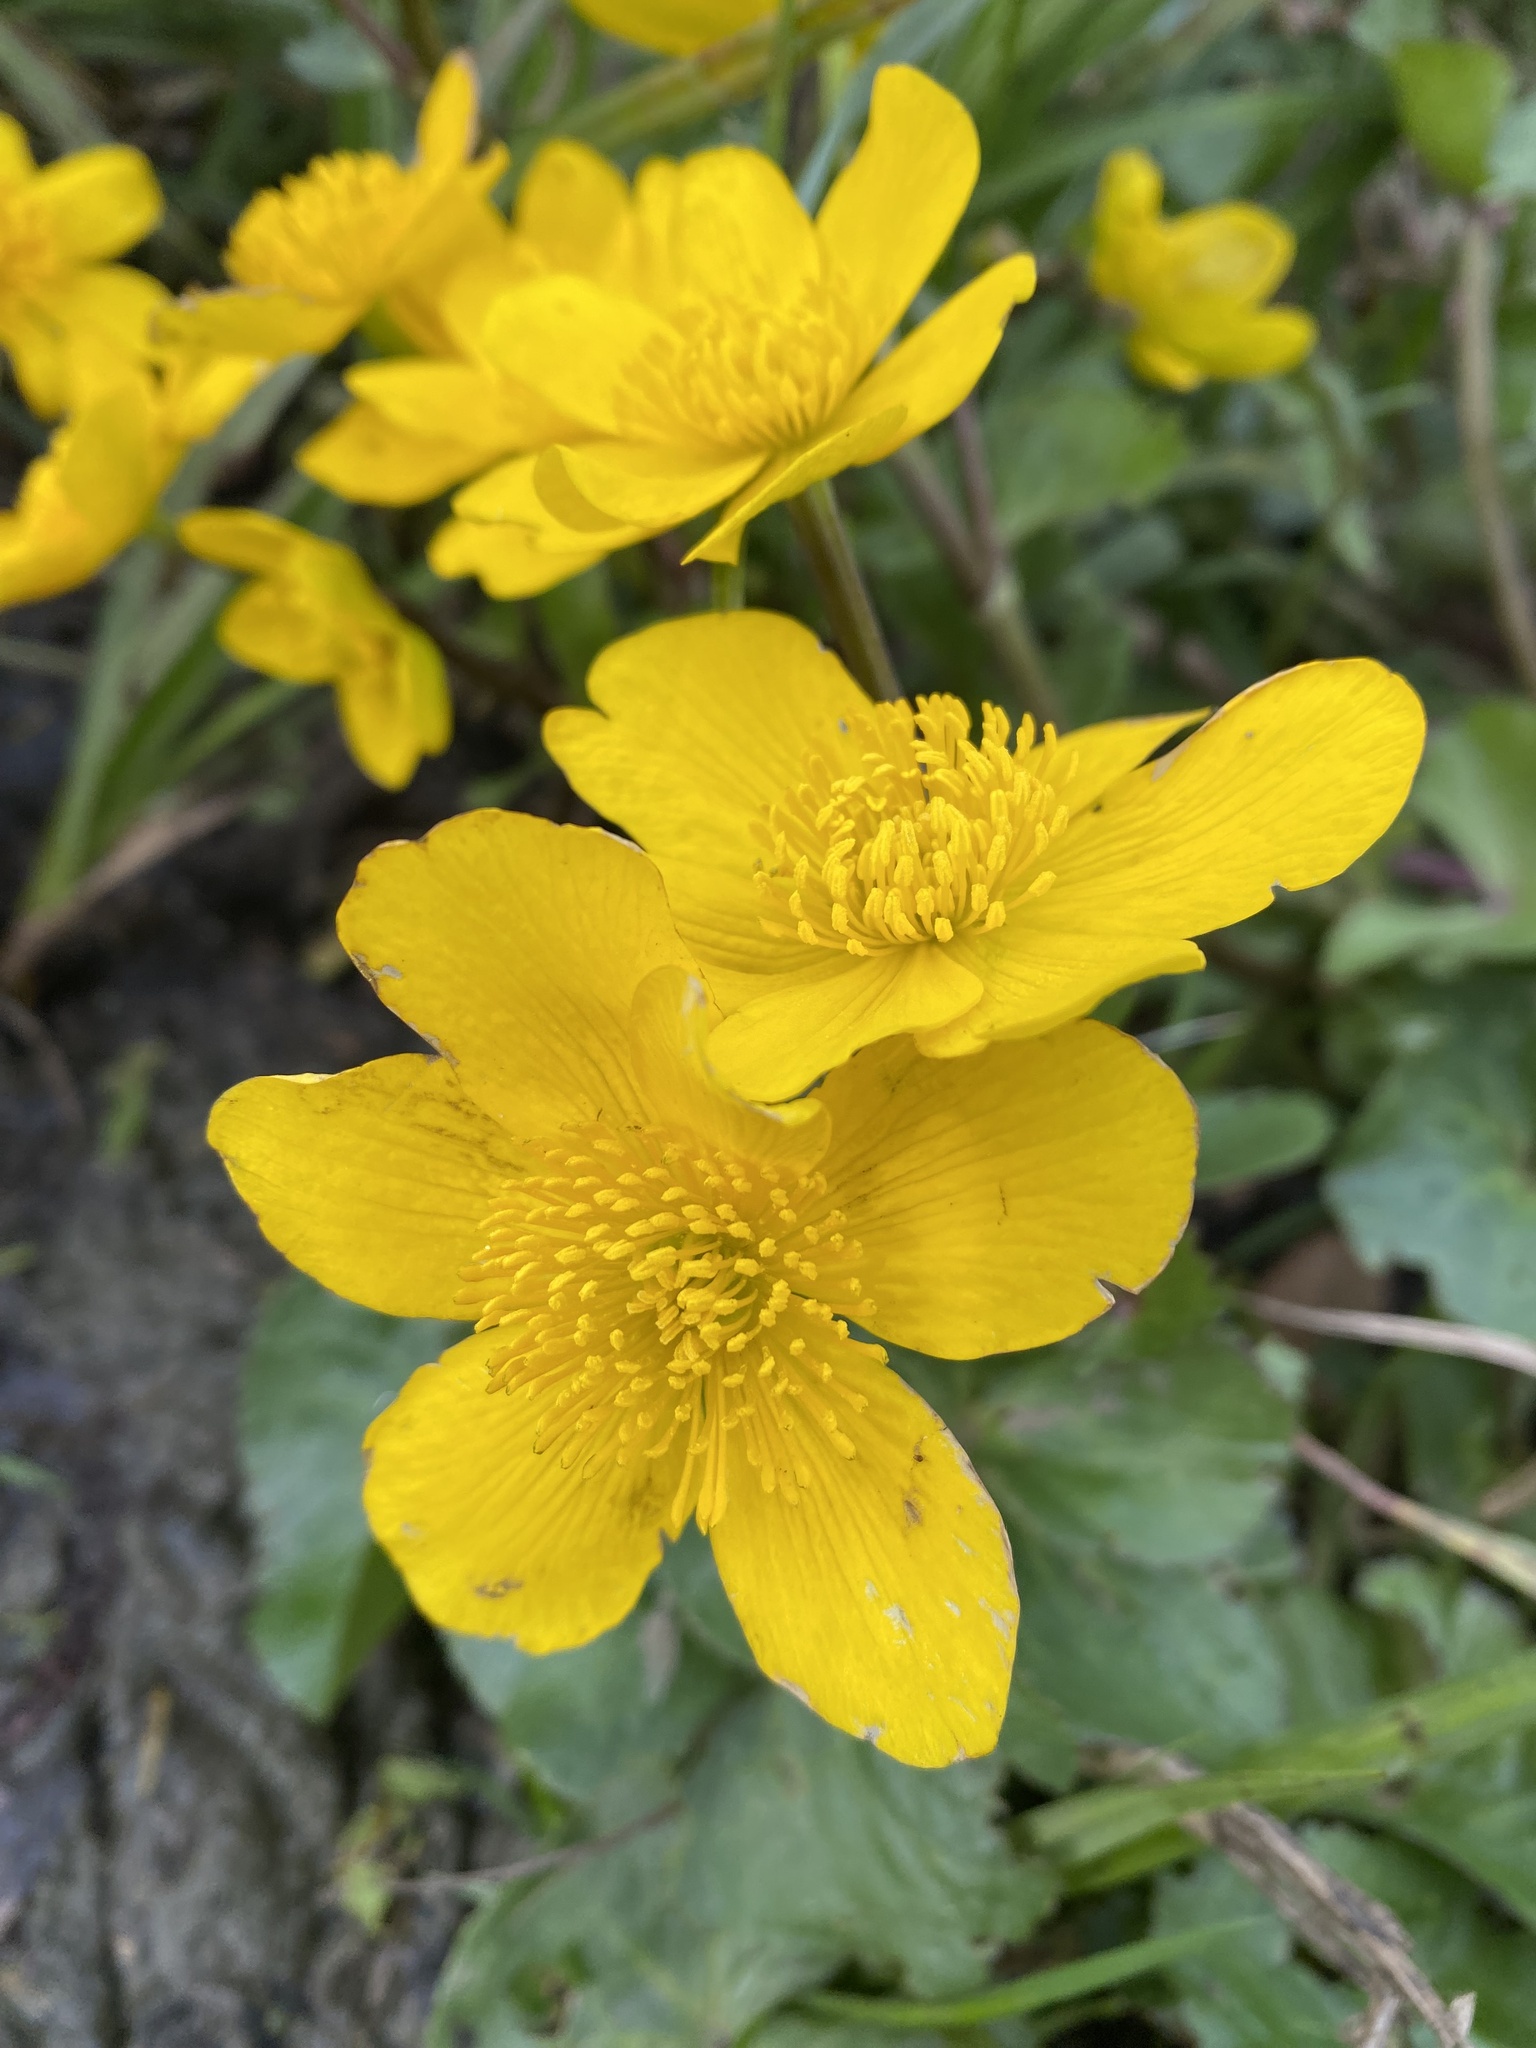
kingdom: Plantae
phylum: Tracheophyta
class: Magnoliopsida
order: Ranunculales
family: Ranunculaceae
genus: Caltha
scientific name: Caltha palustris
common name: Marsh marigold
